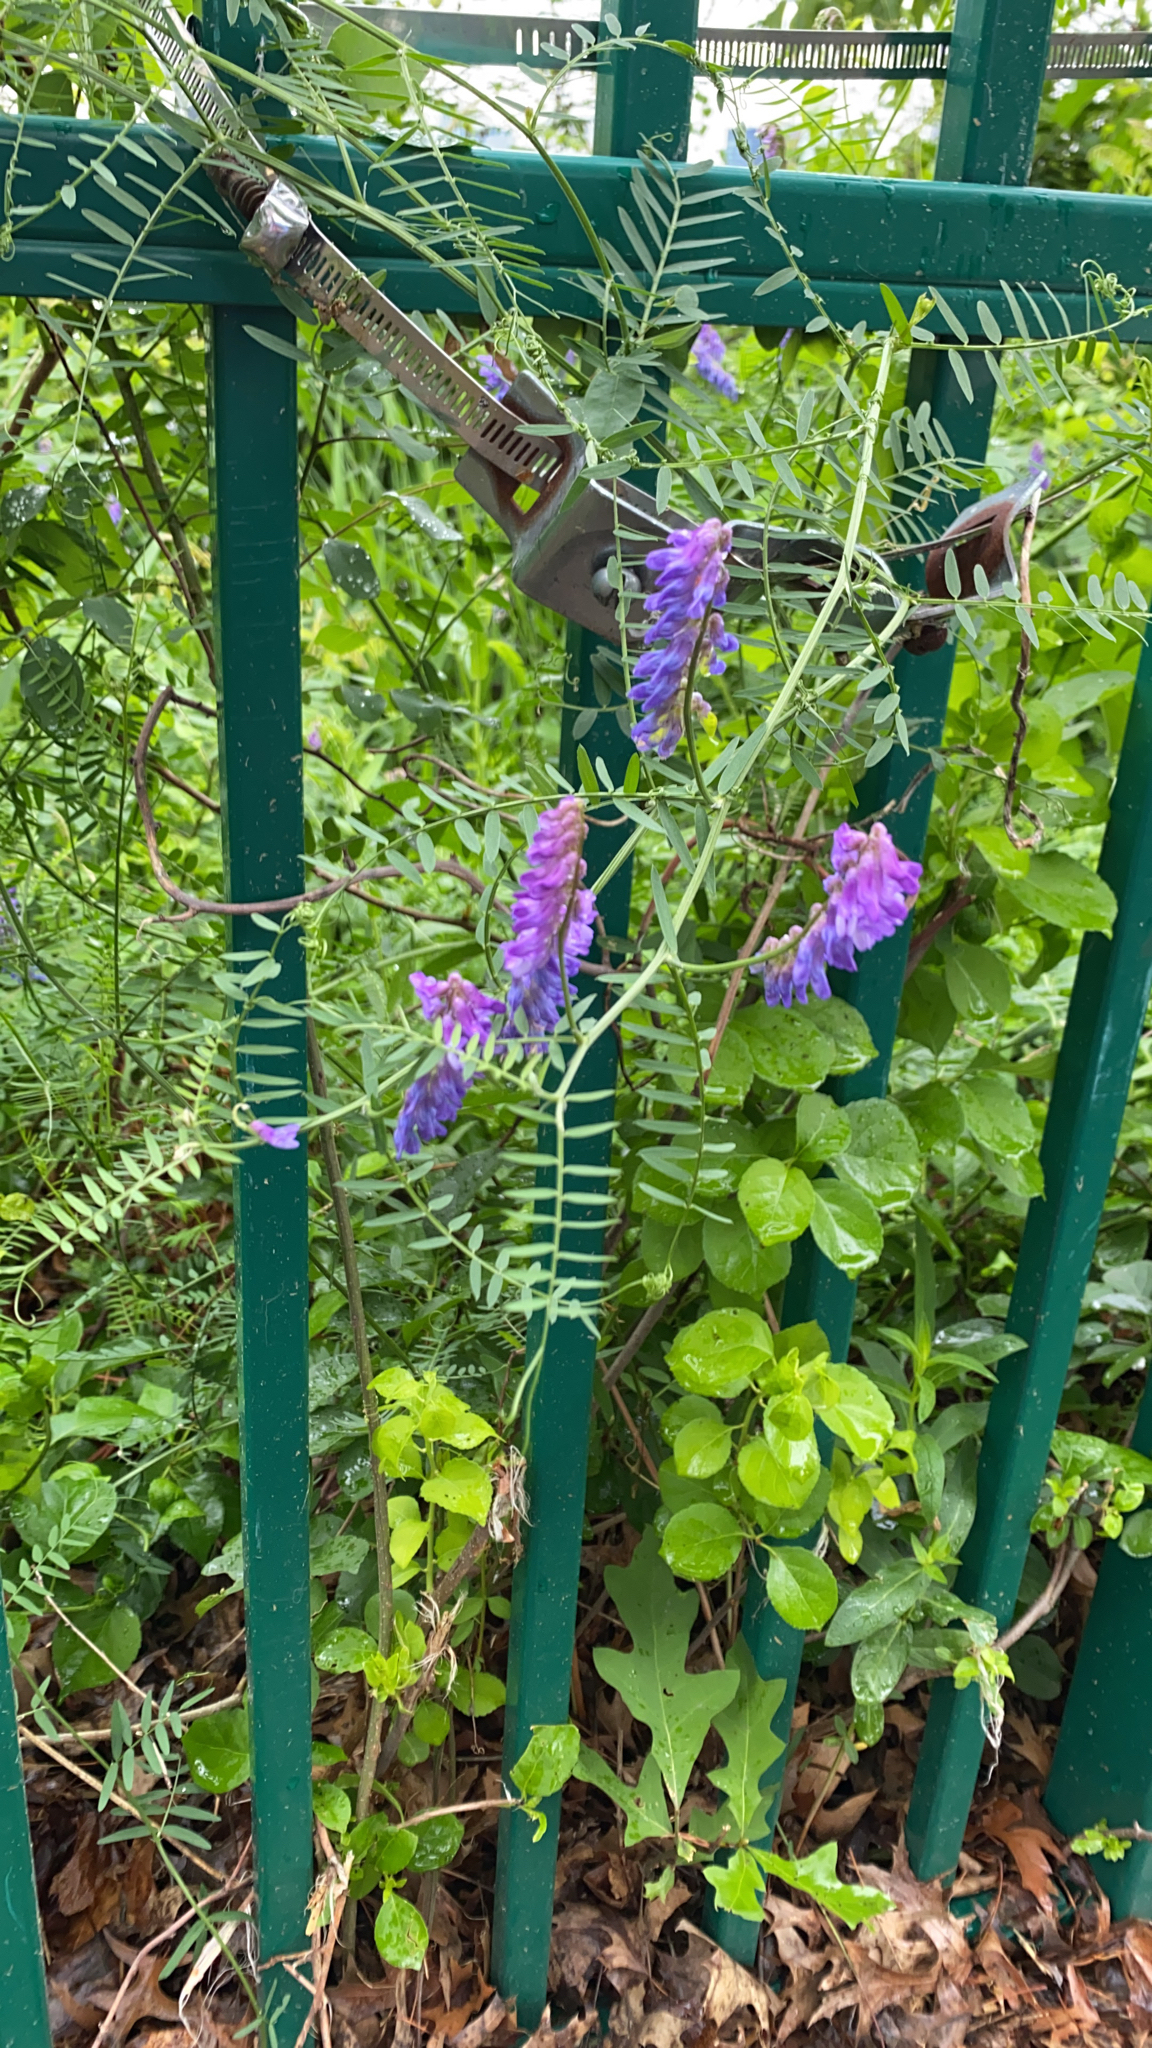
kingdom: Plantae
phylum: Tracheophyta
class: Magnoliopsida
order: Fabales
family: Fabaceae
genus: Vicia
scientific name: Vicia cracca
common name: Bird vetch
